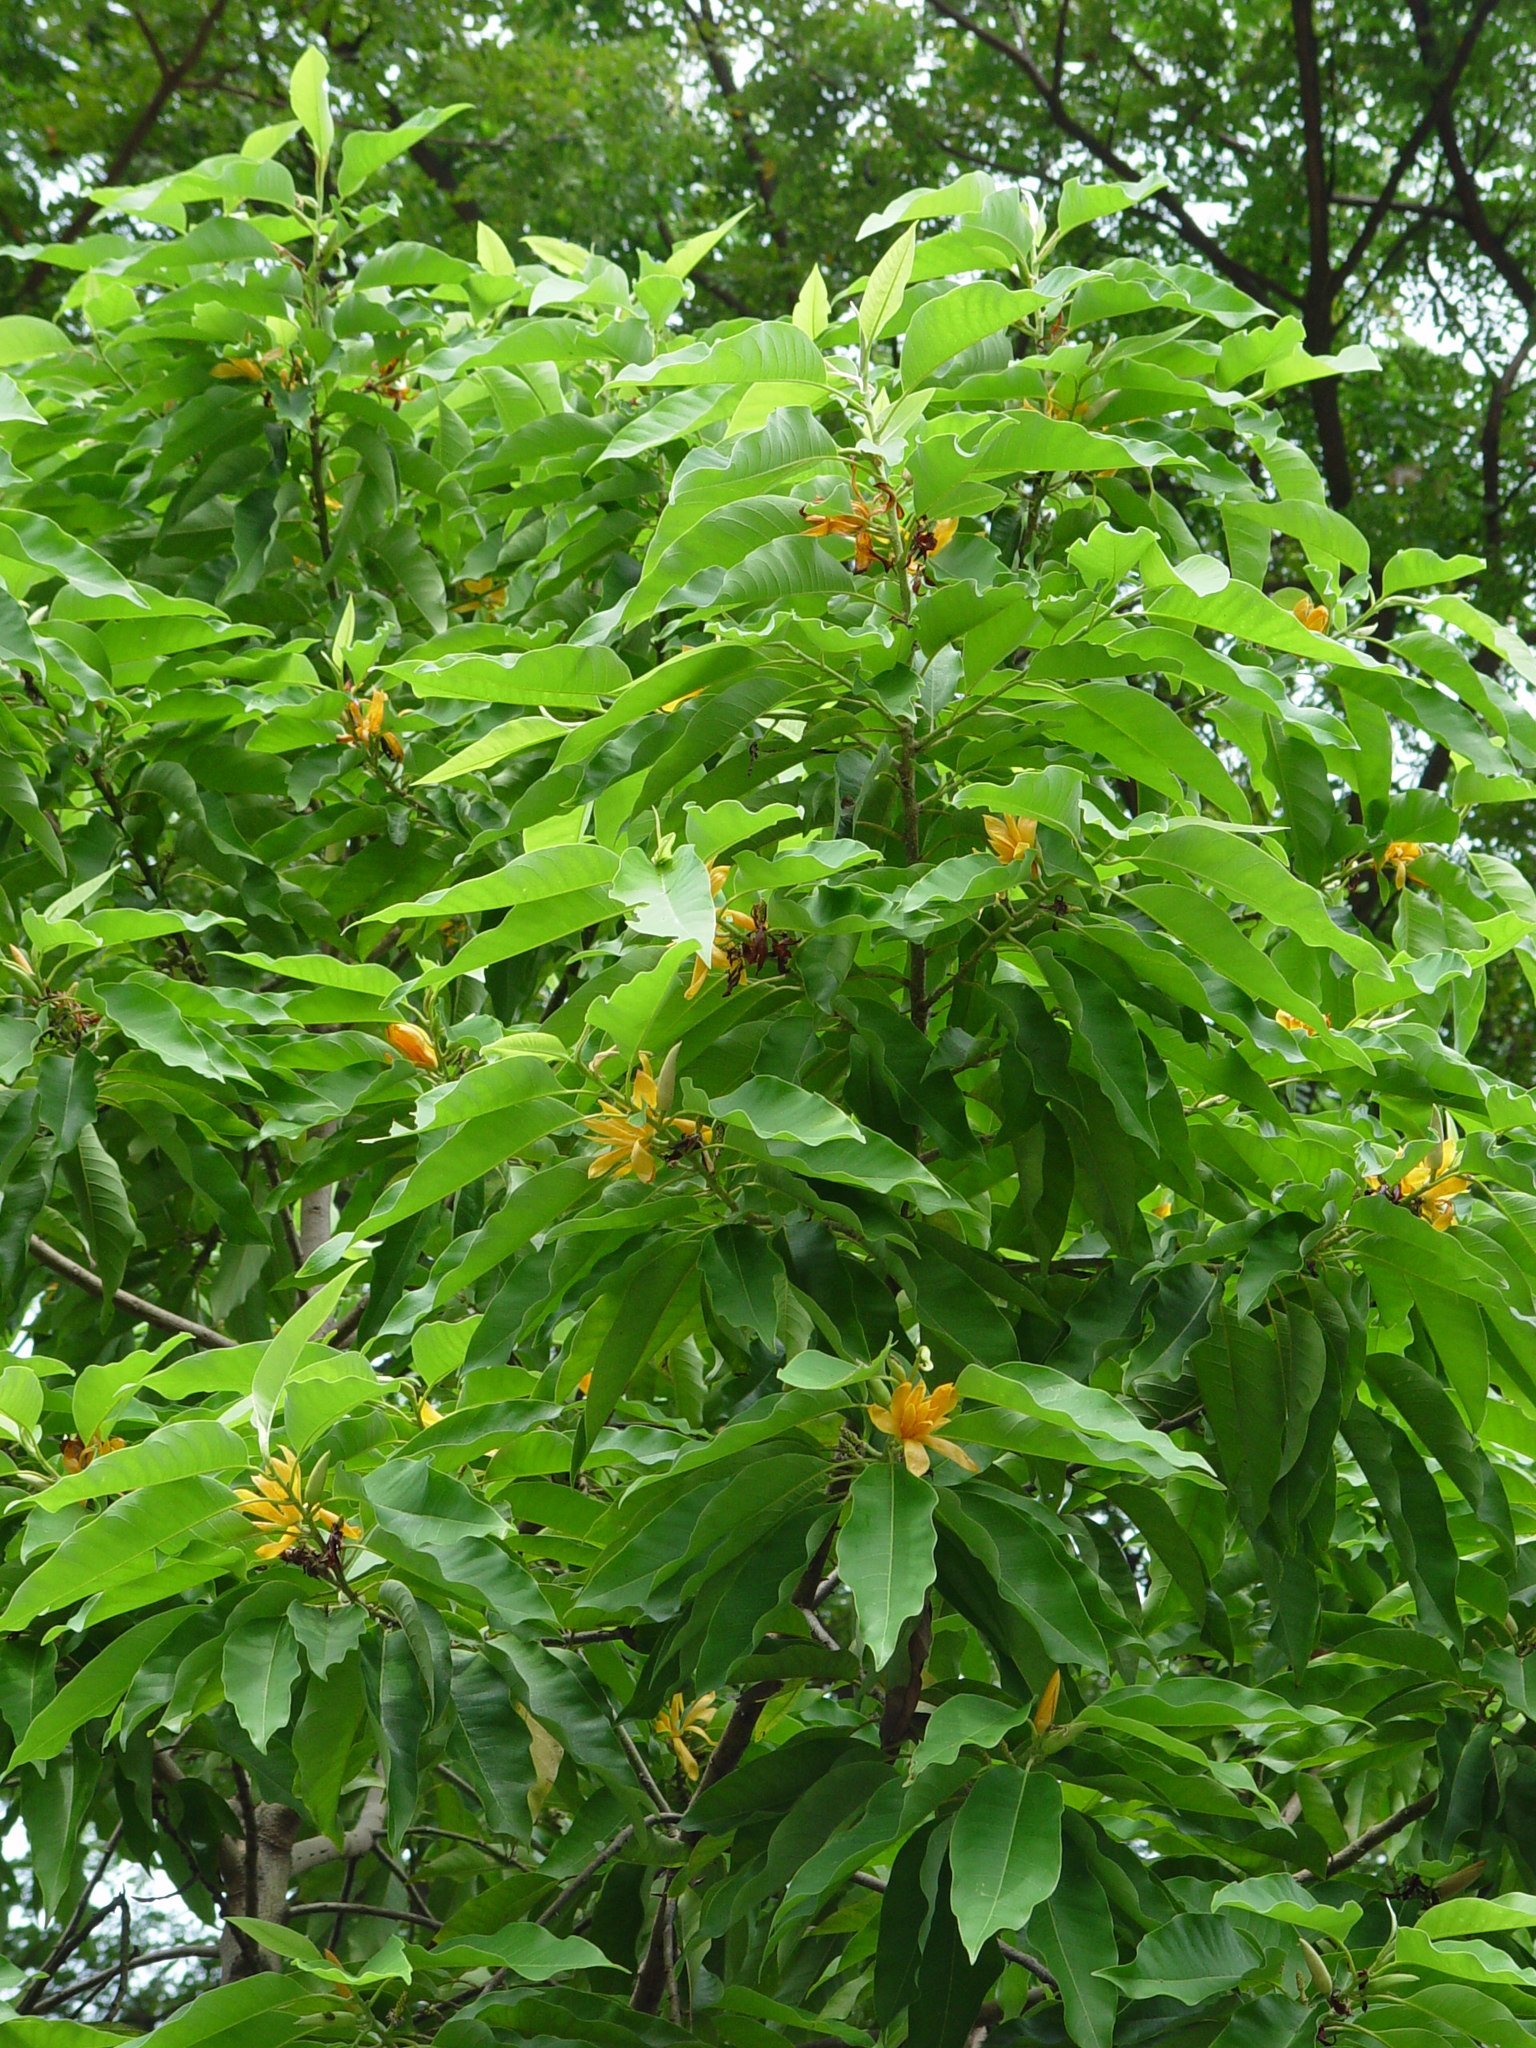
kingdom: Plantae
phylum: Tracheophyta
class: Magnoliopsida
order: Magnoliales
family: Magnoliaceae
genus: Magnolia
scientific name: Magnolia champaca
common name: Champak
